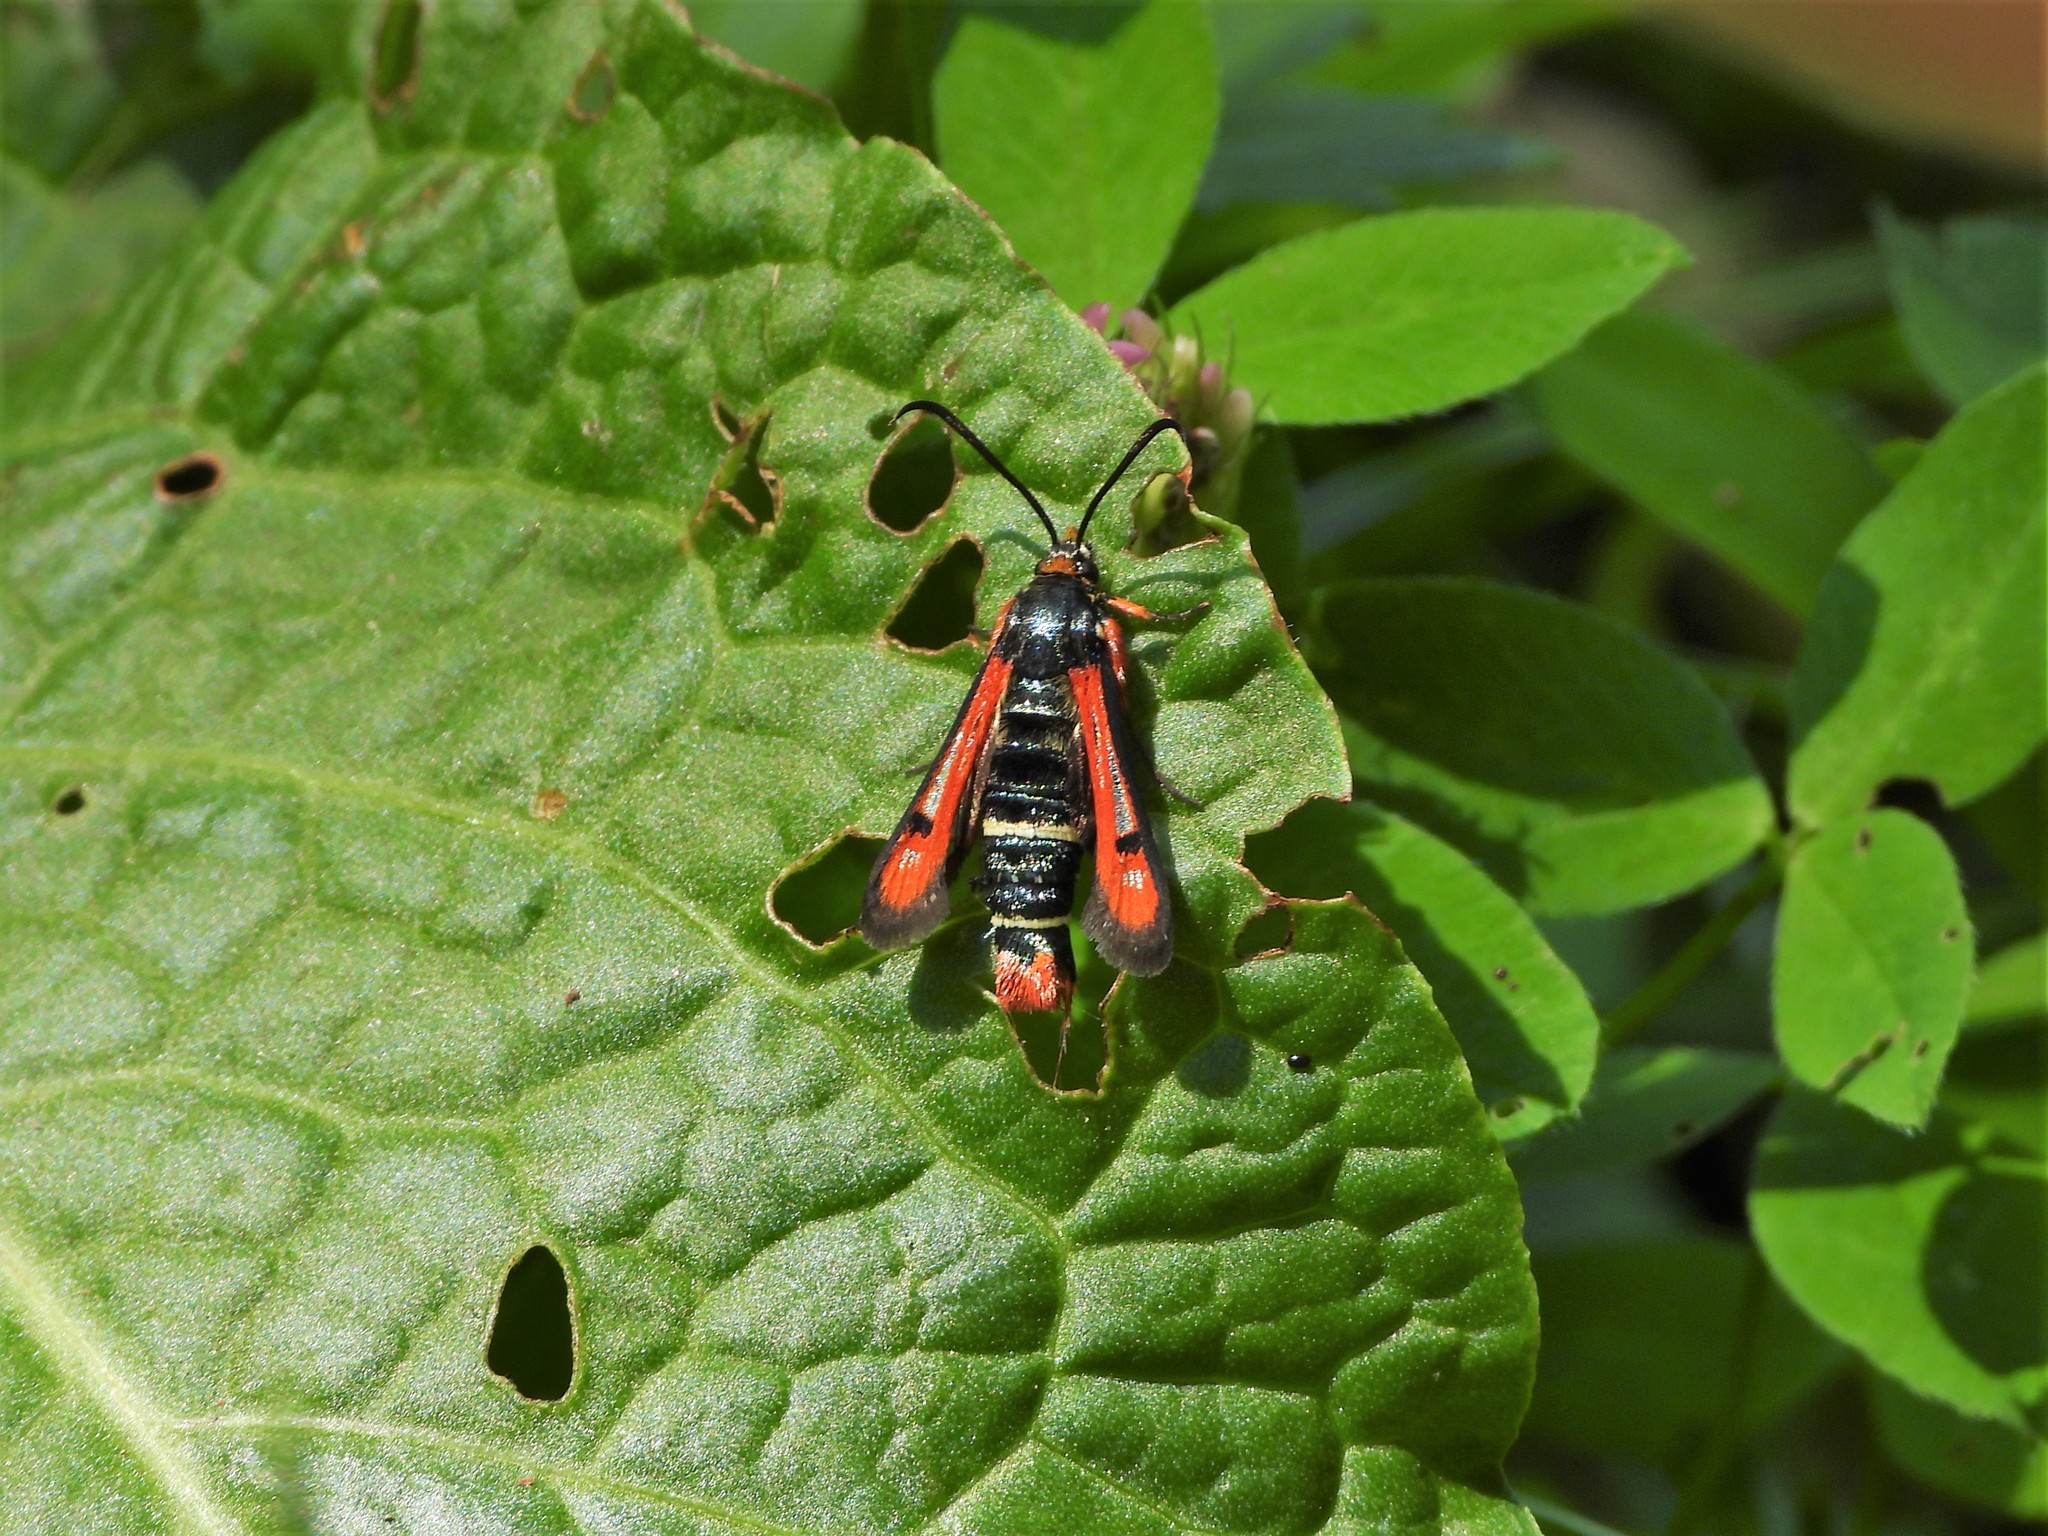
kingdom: Animalia
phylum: Arthropoda
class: Insecta
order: Lepidoptera
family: Sesiidae
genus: Pyropteron
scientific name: Pyropteron chrysidiforme
